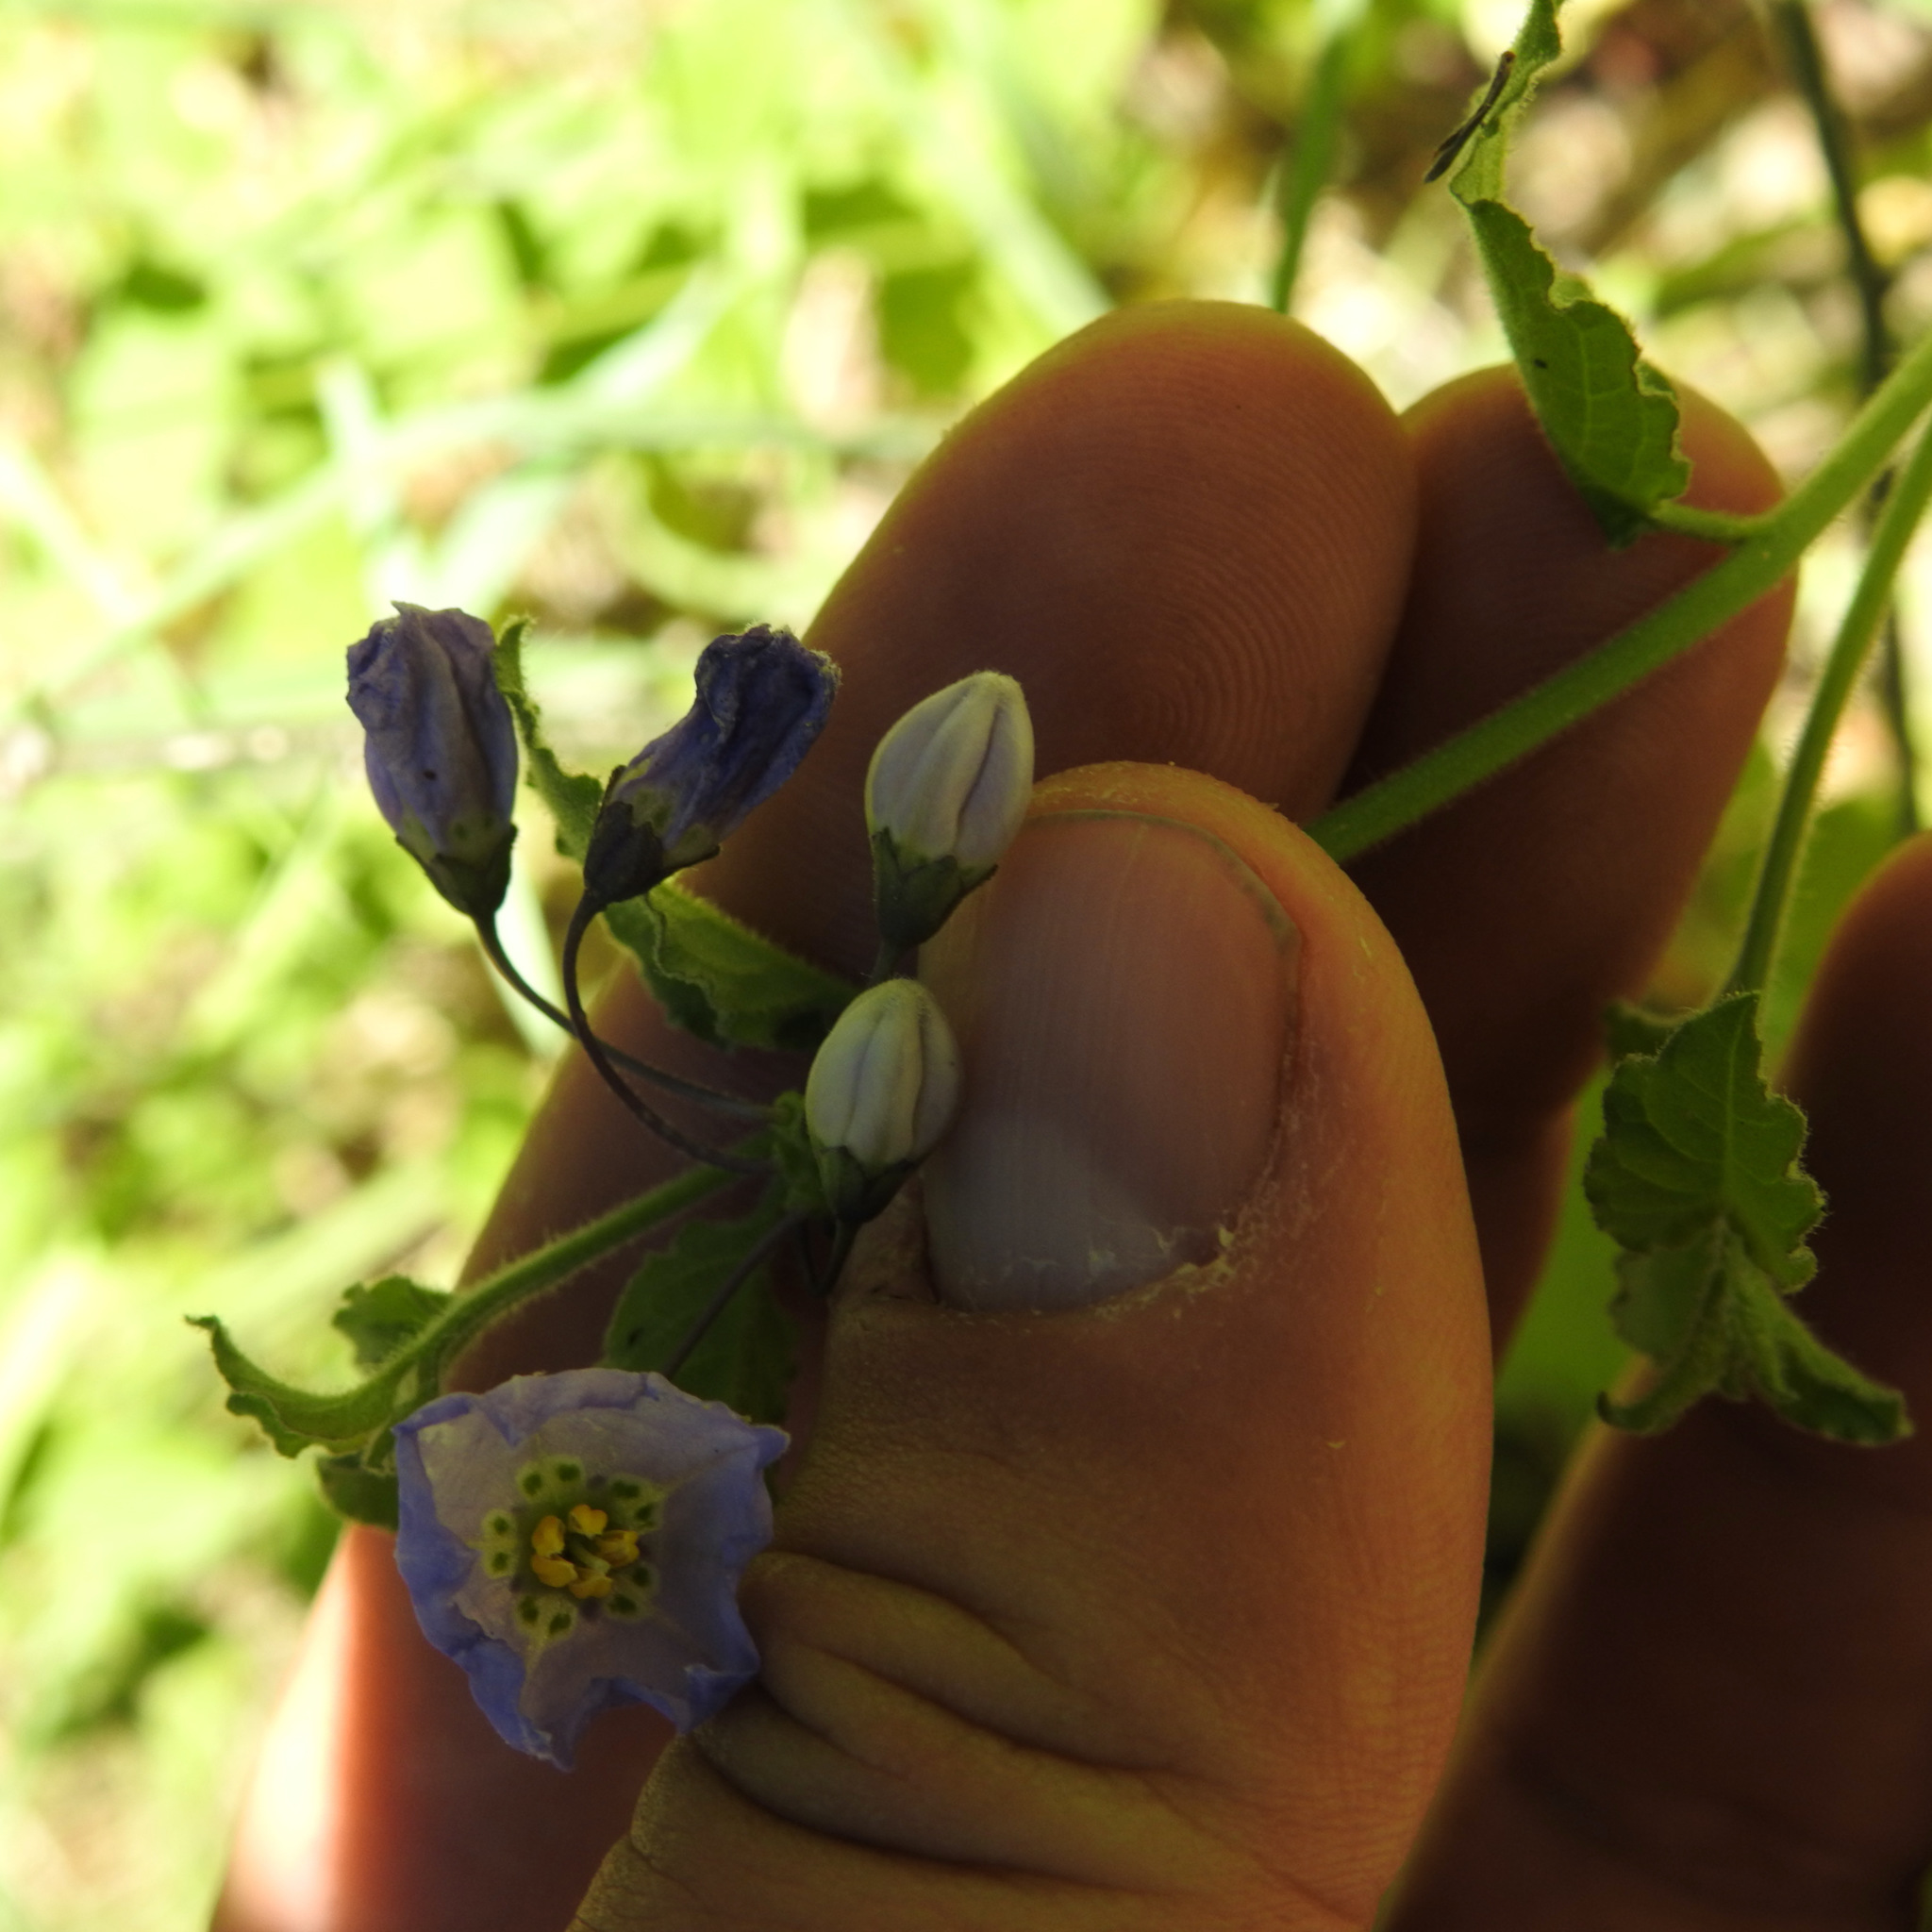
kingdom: Plantae
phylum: Tracheophyta
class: Magnoliopsida
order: Solanales
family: Solanaceae
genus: Solanum
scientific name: Solanum umbelliferum
